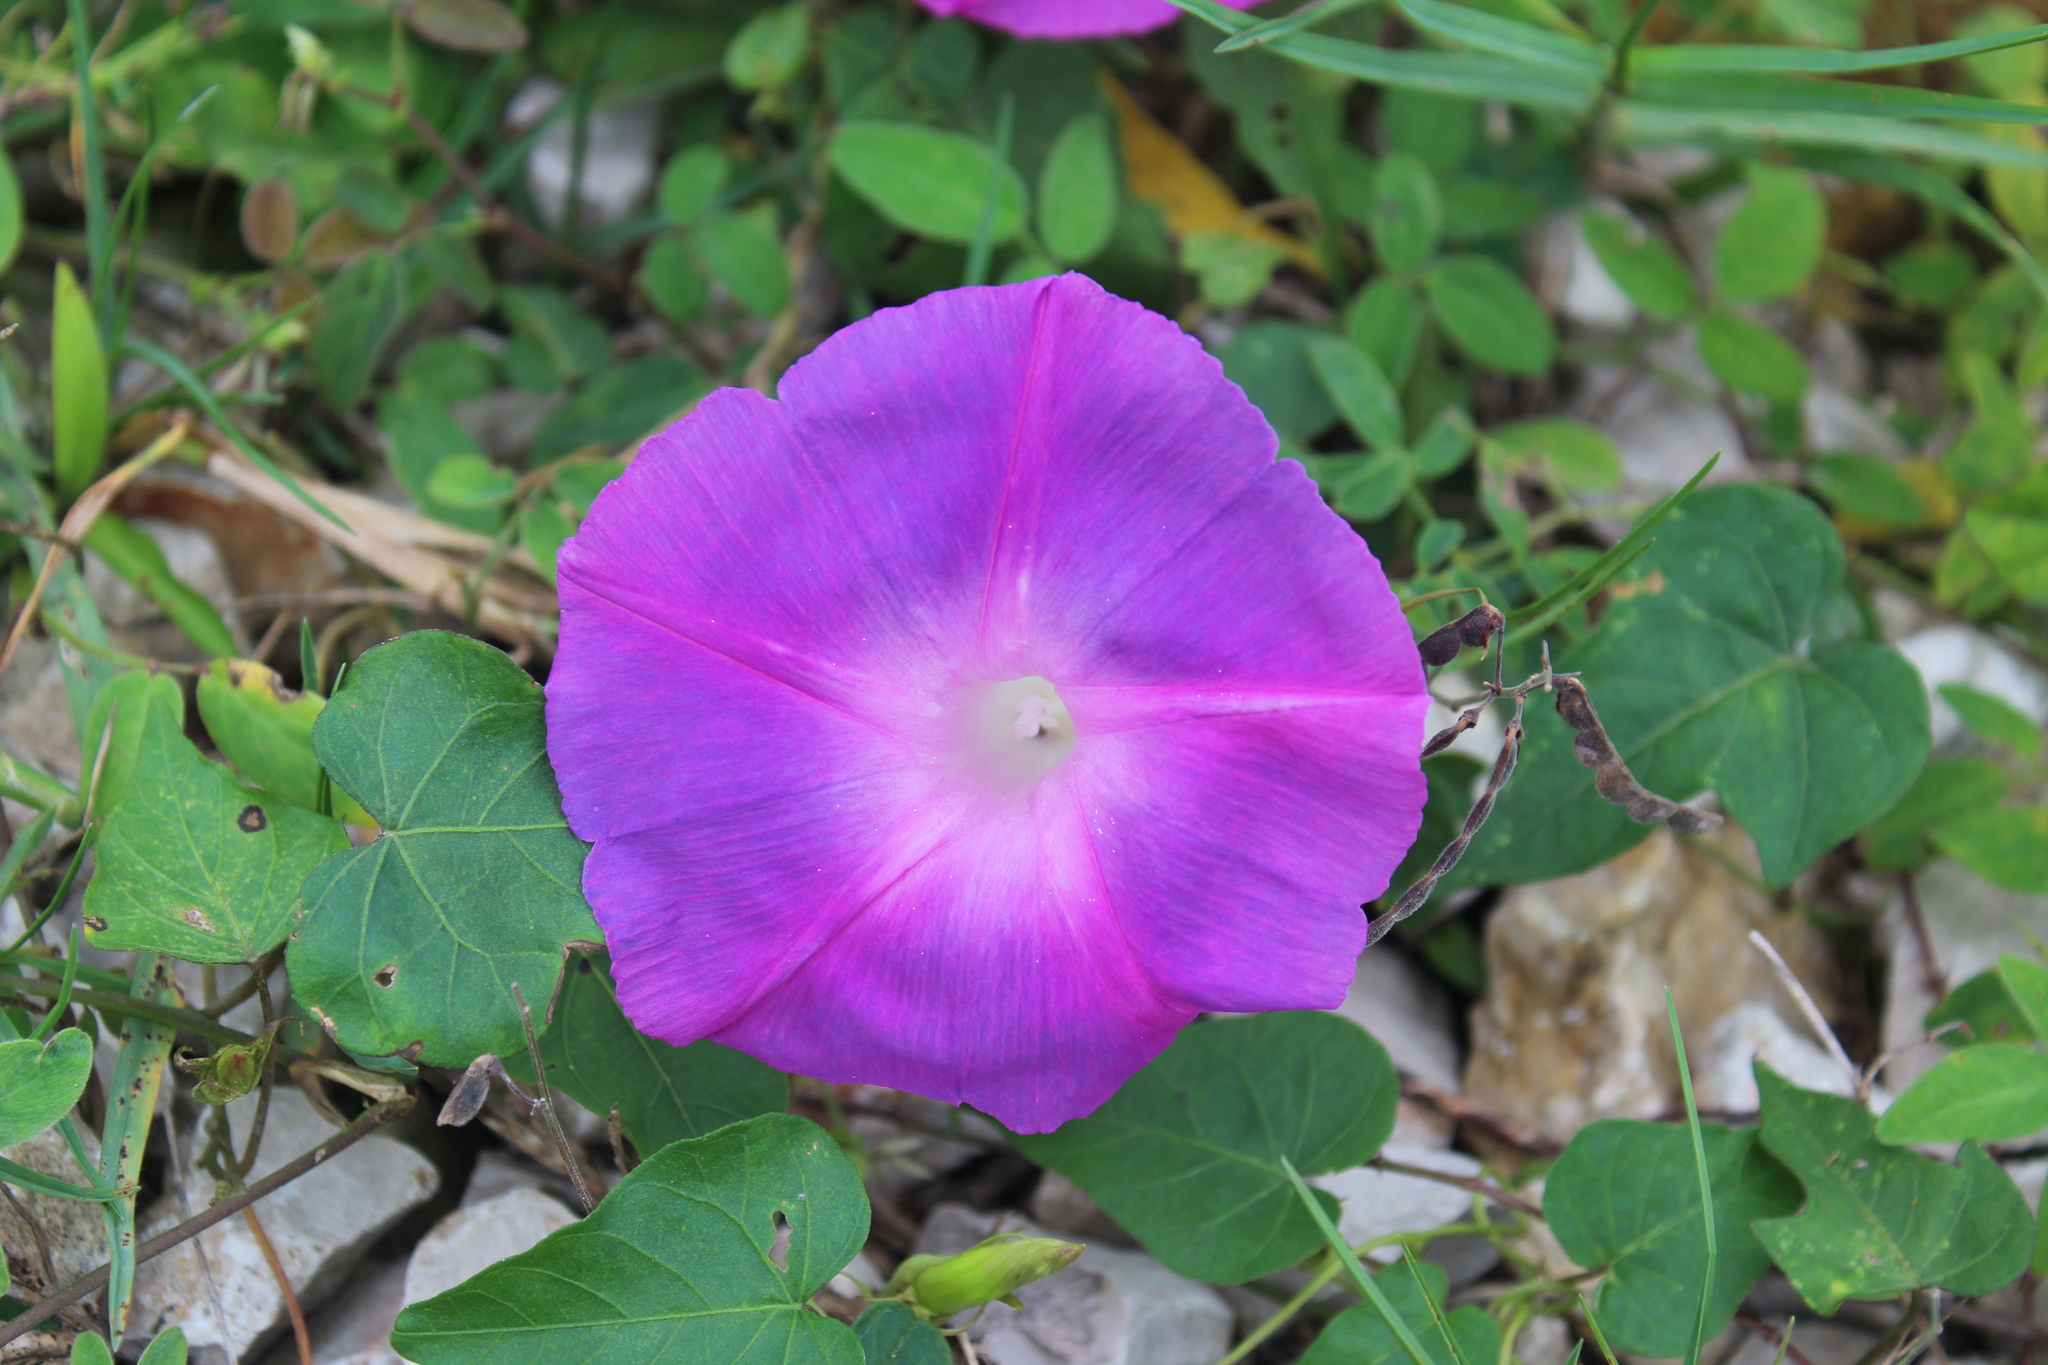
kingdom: Plantae
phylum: Tracheophyta
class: Magnoliopsida
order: Solanales
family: Convolvulaceae
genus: Ipomoea
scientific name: Ipomoea indica
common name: Blue dawnflower
